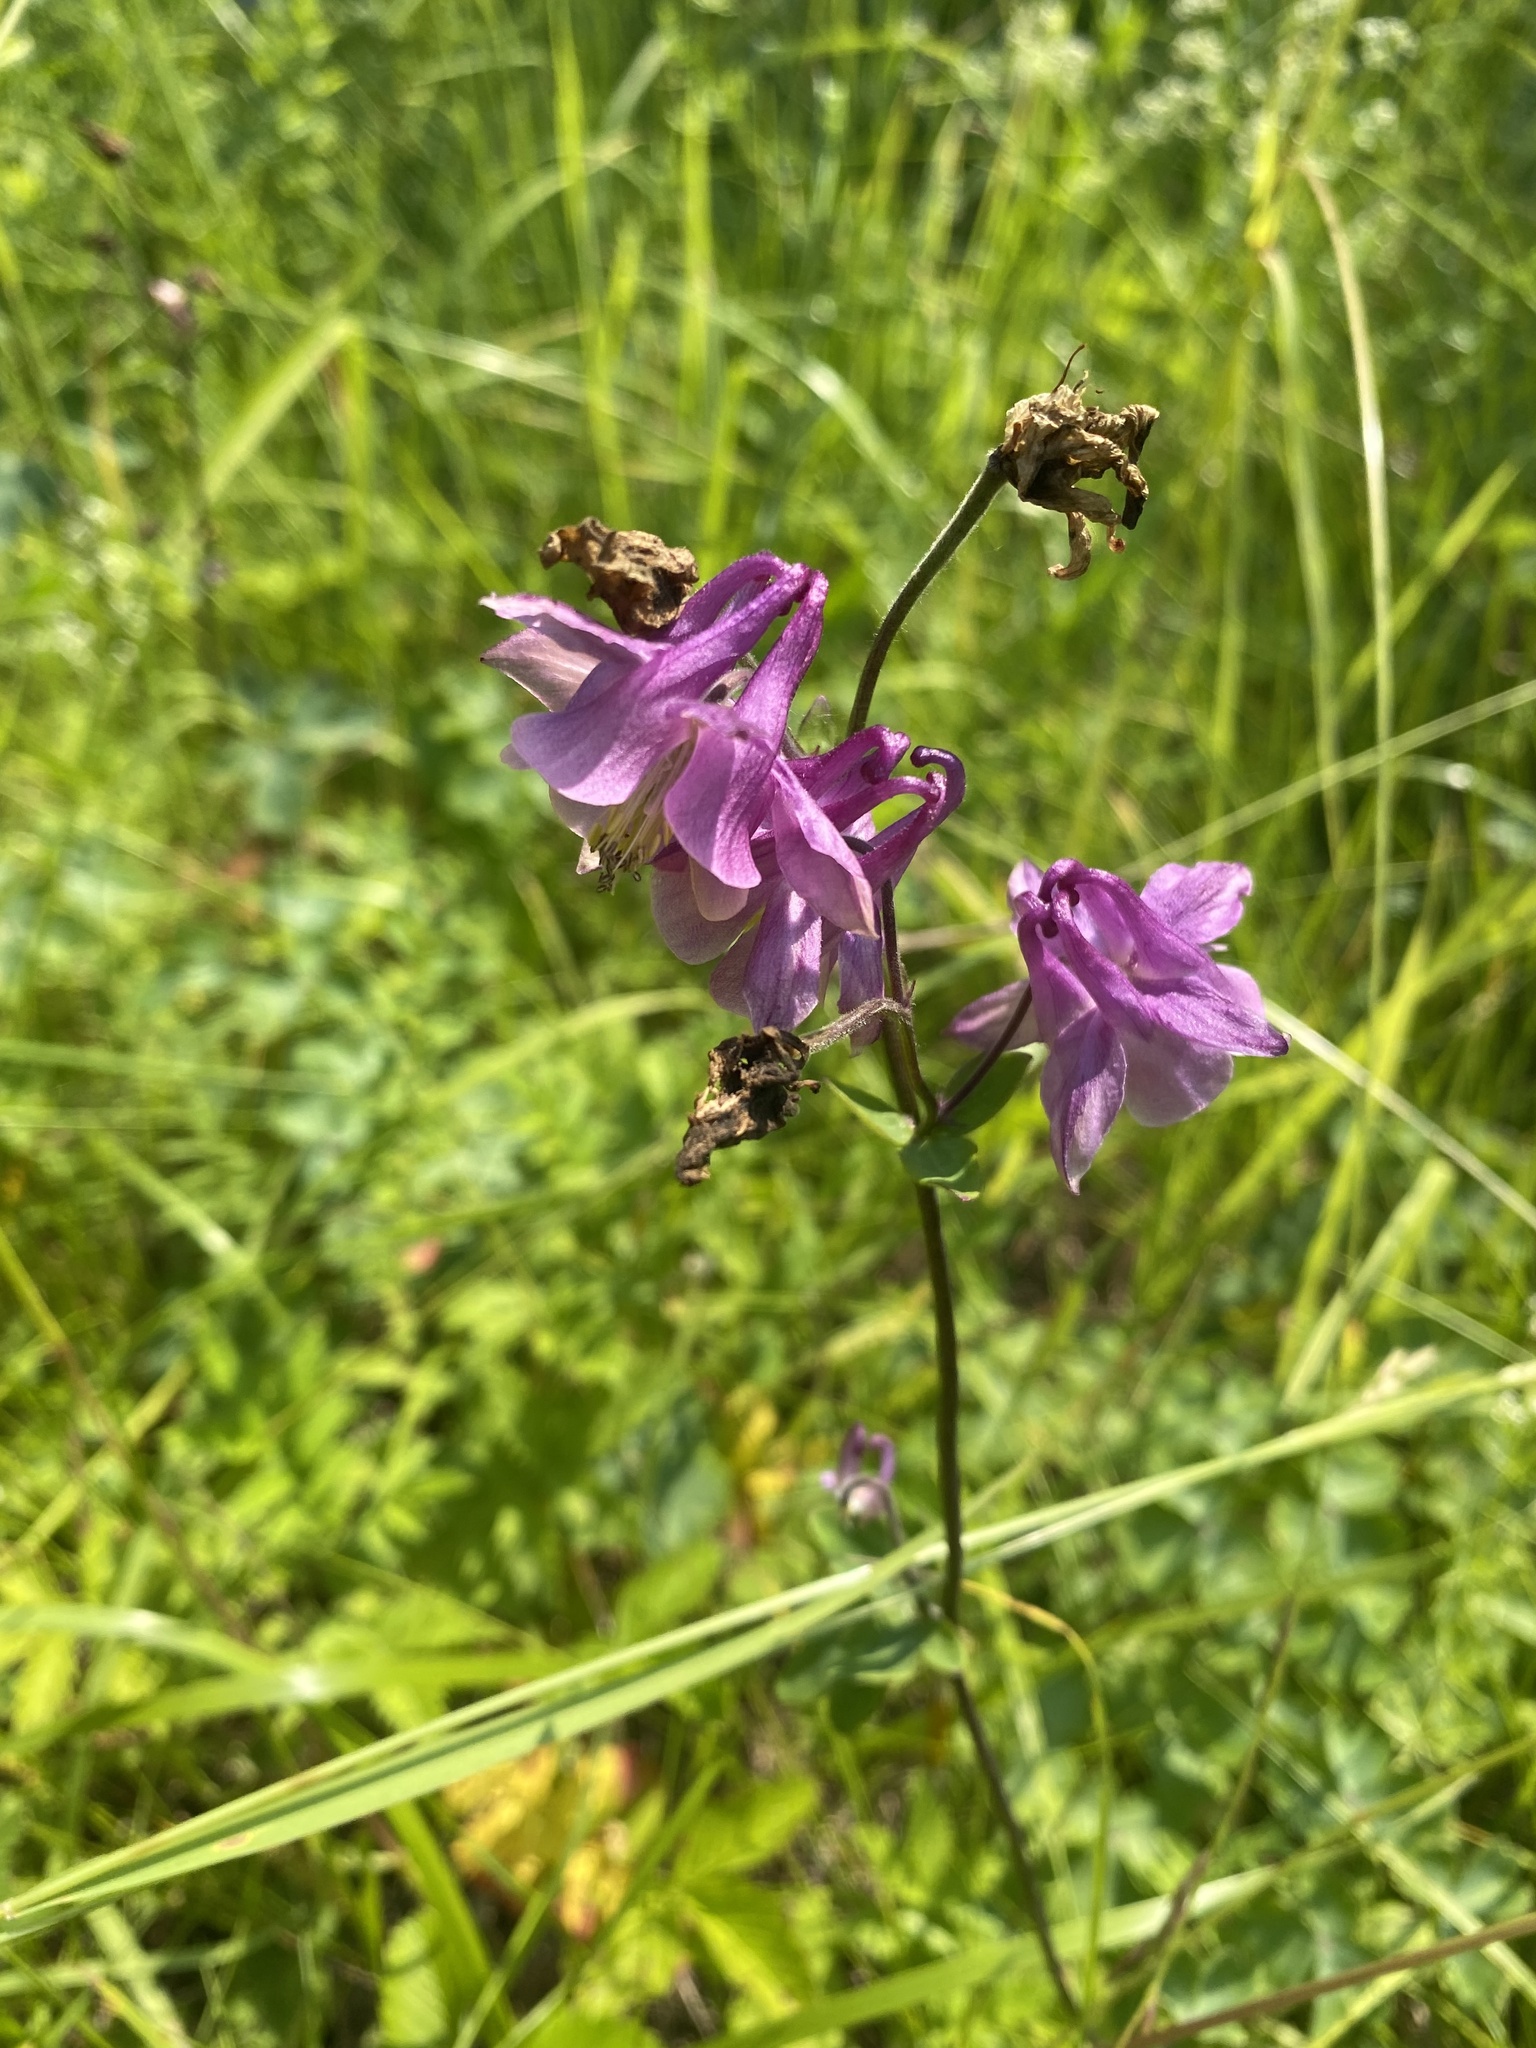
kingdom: Plantae
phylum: Tracheophyta
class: Magnoliopsida
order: Ranunculales
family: Ranunculaceae
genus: Aquilegia
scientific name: Aquilegia vulgaris
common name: Columbine
